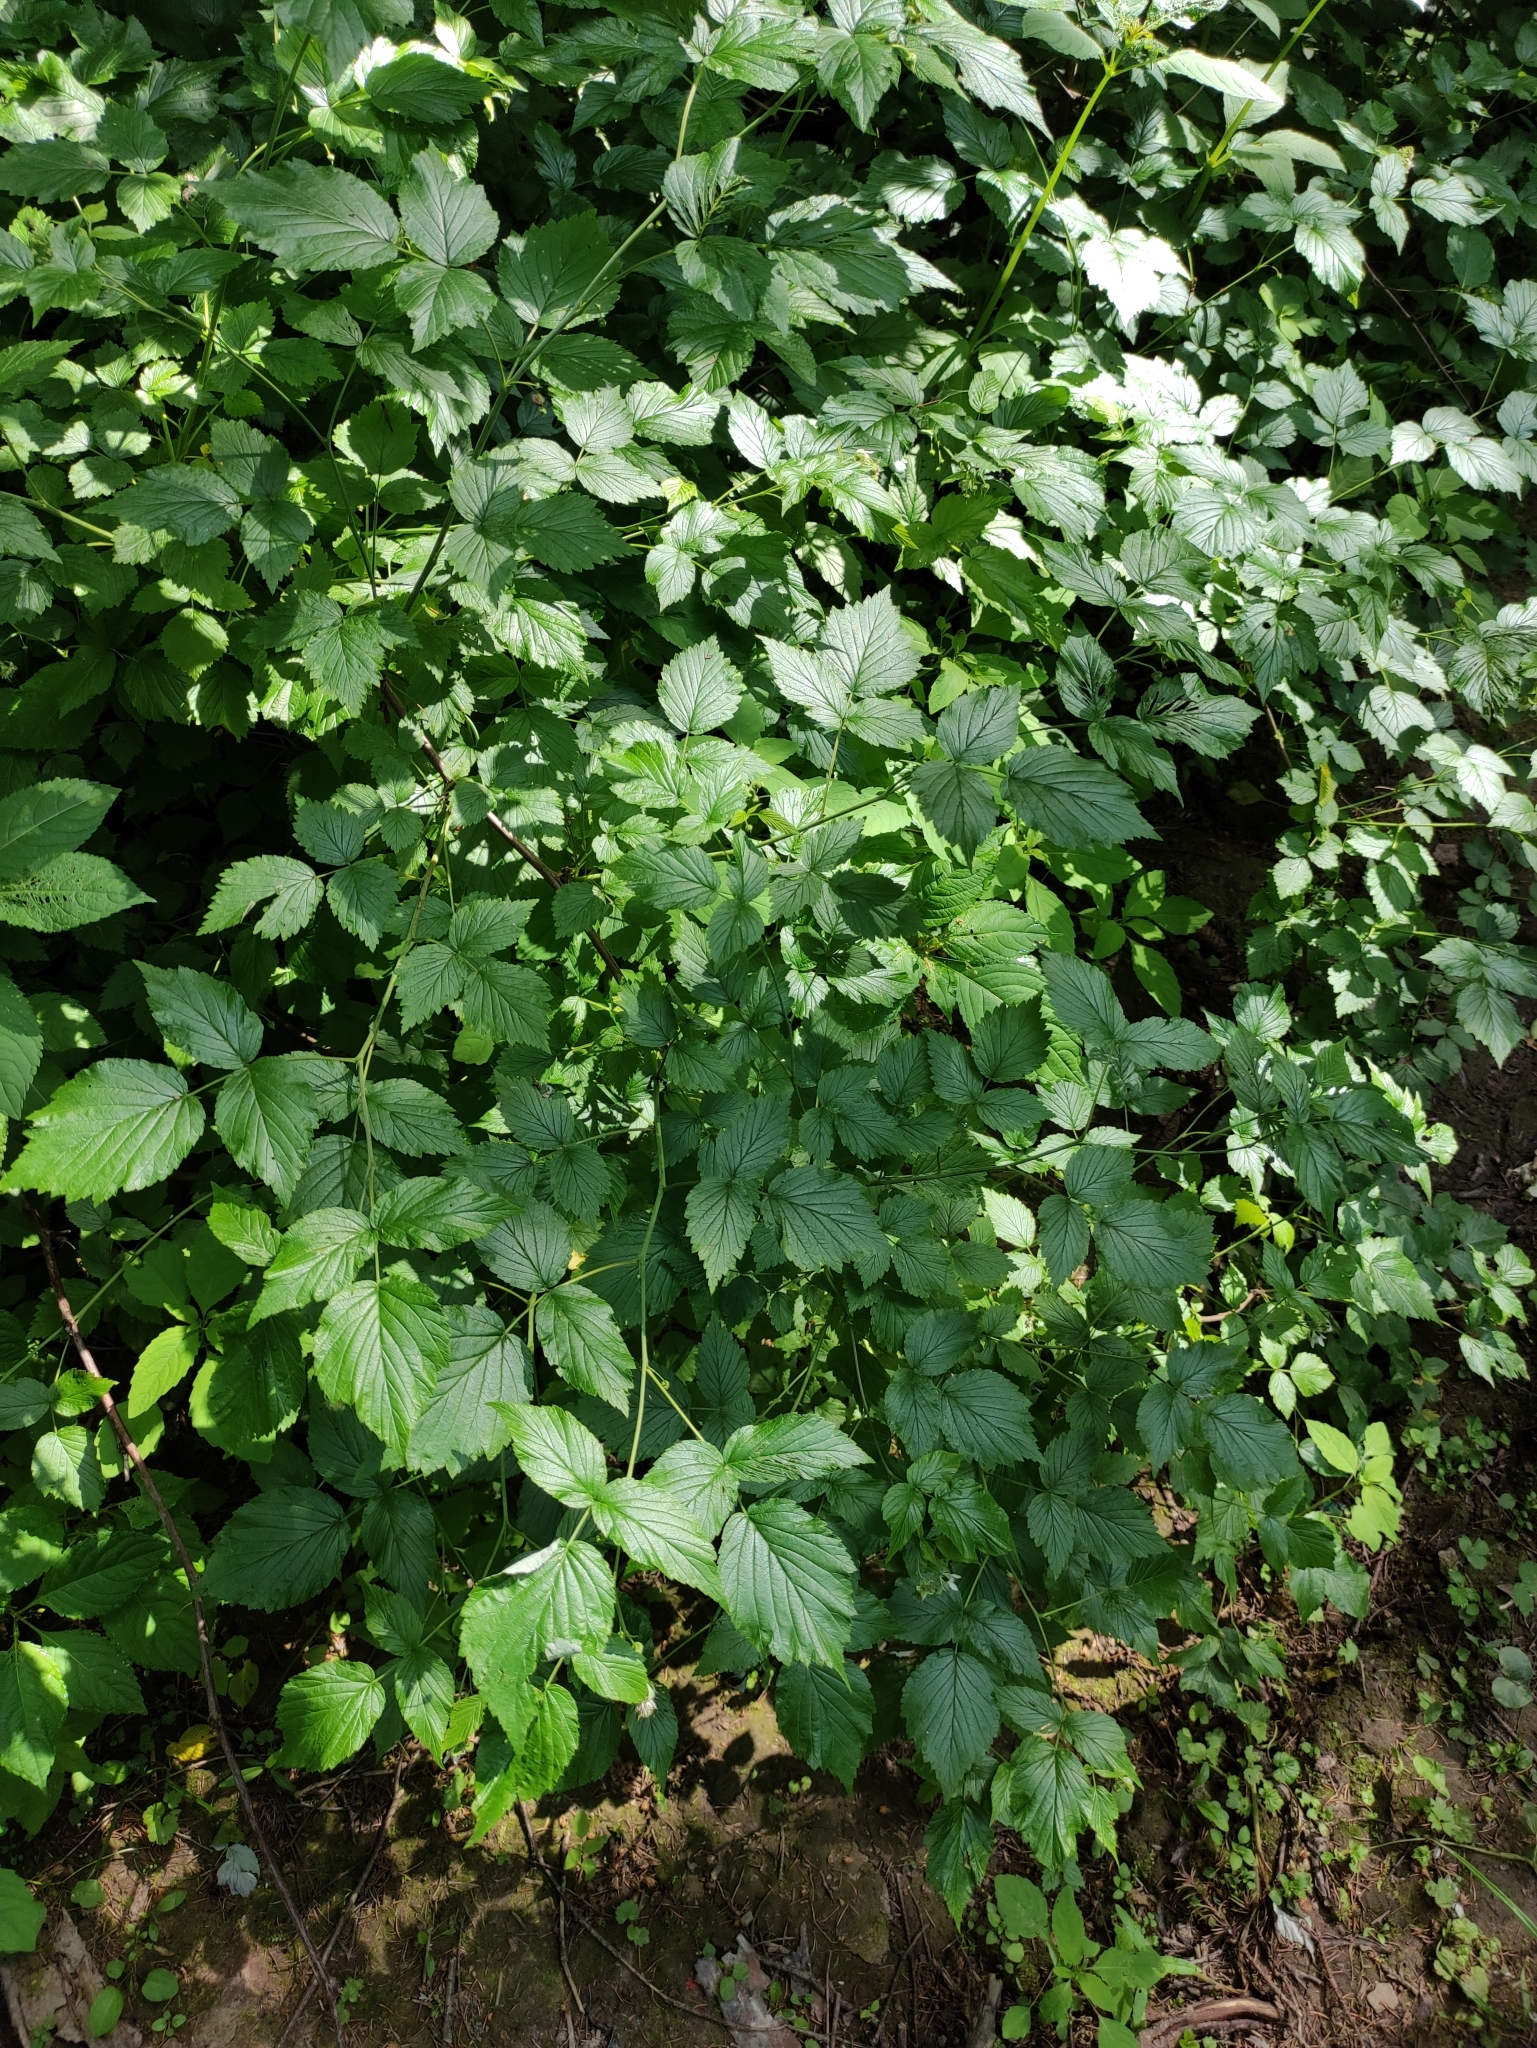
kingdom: Plantae
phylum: Tracheophyta
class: Magnoliopsida
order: Rosales
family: Rosaceae
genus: Rubus
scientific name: Rubus idaeus
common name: Raspberry
